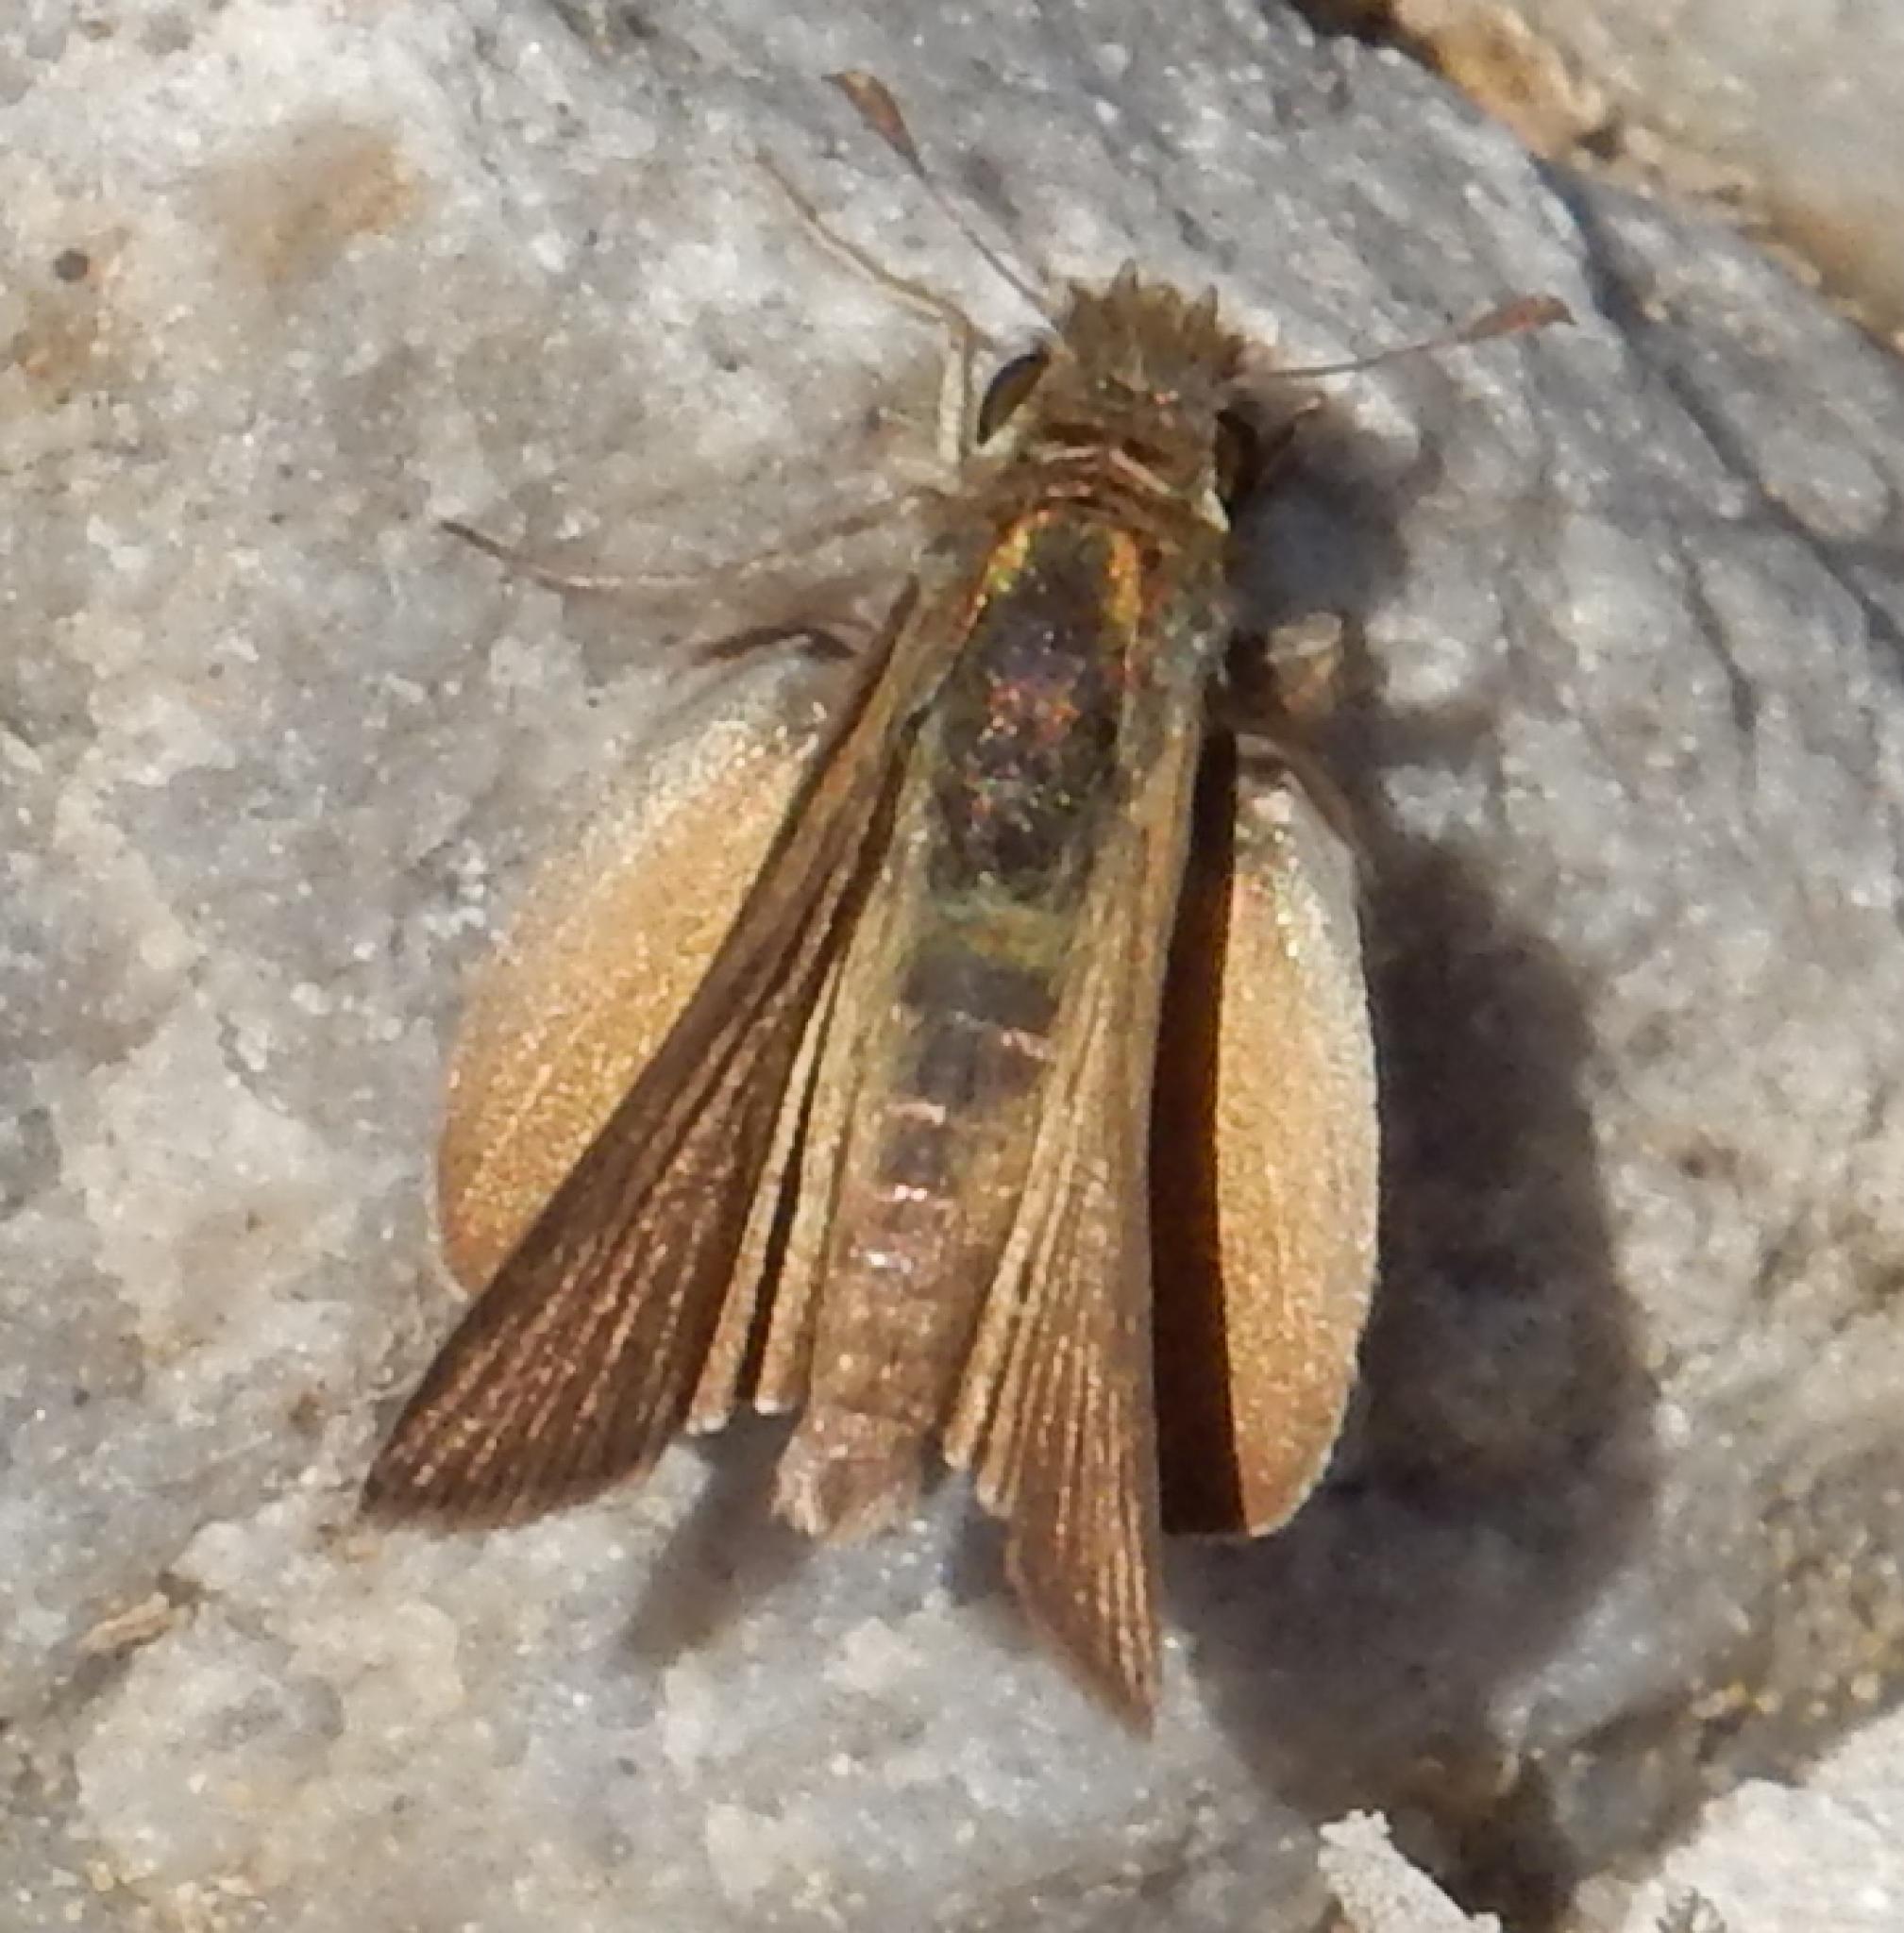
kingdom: Animalia
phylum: Arthropoda
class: Insecta
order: Lepidoptera
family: Hesperiidae
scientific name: Hesperiidae
